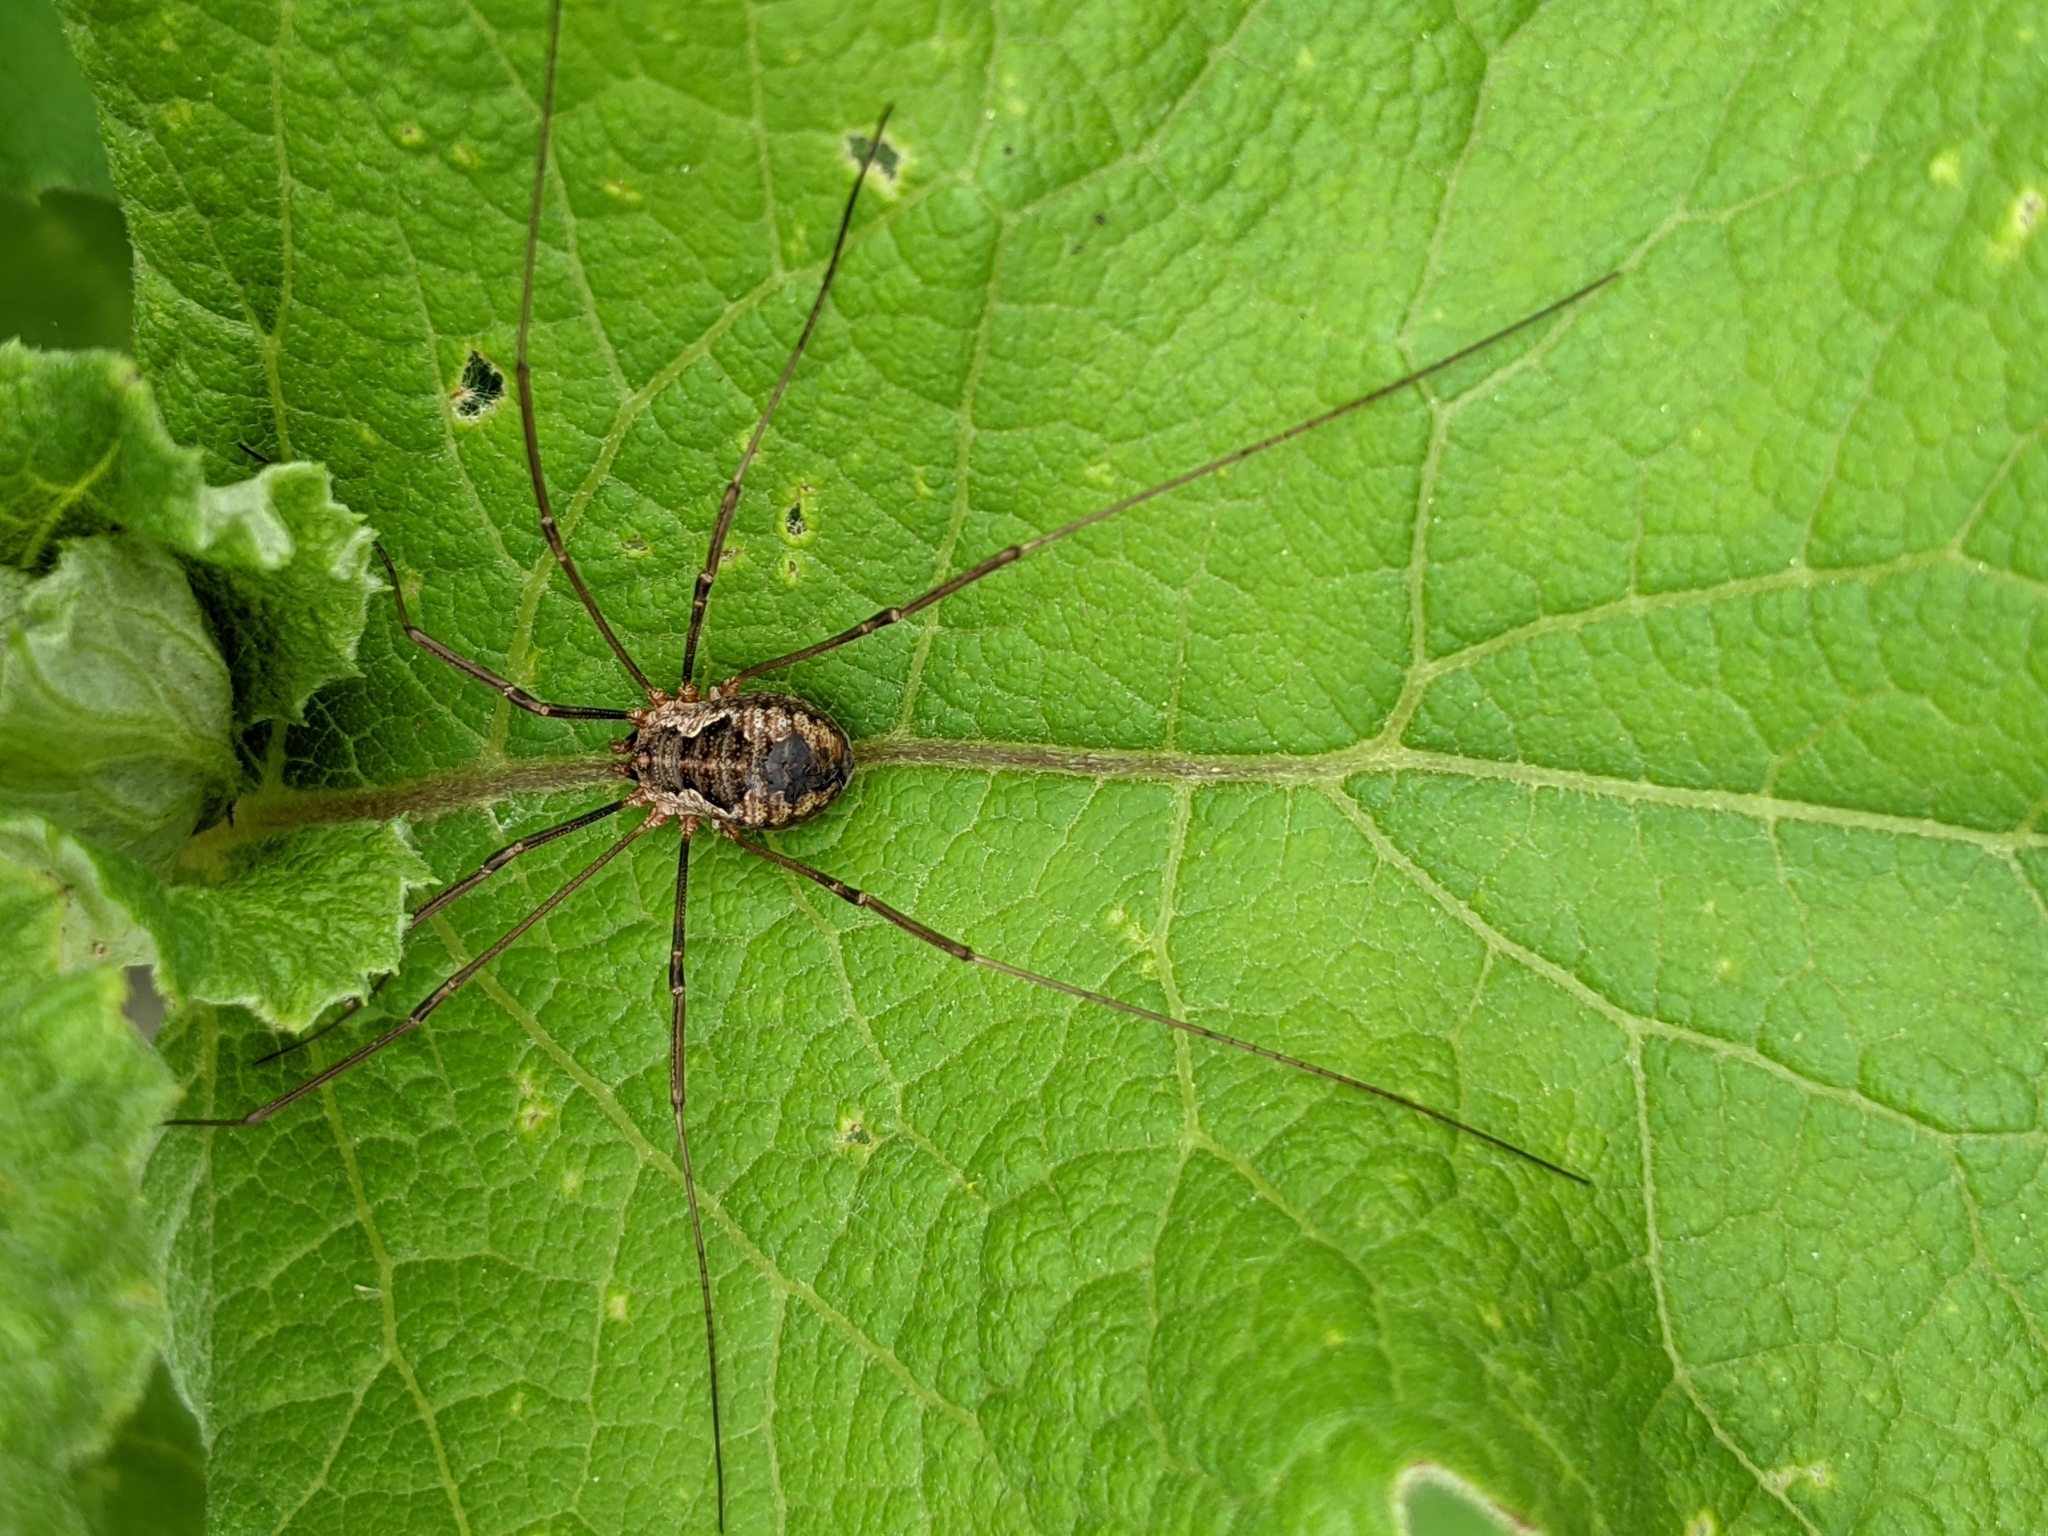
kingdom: Animalia
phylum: Arthropoda
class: Arachnida
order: Opiliones
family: Phalangiidae
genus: Phalangium
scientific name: Phalangium opilio
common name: Daddy longleg
